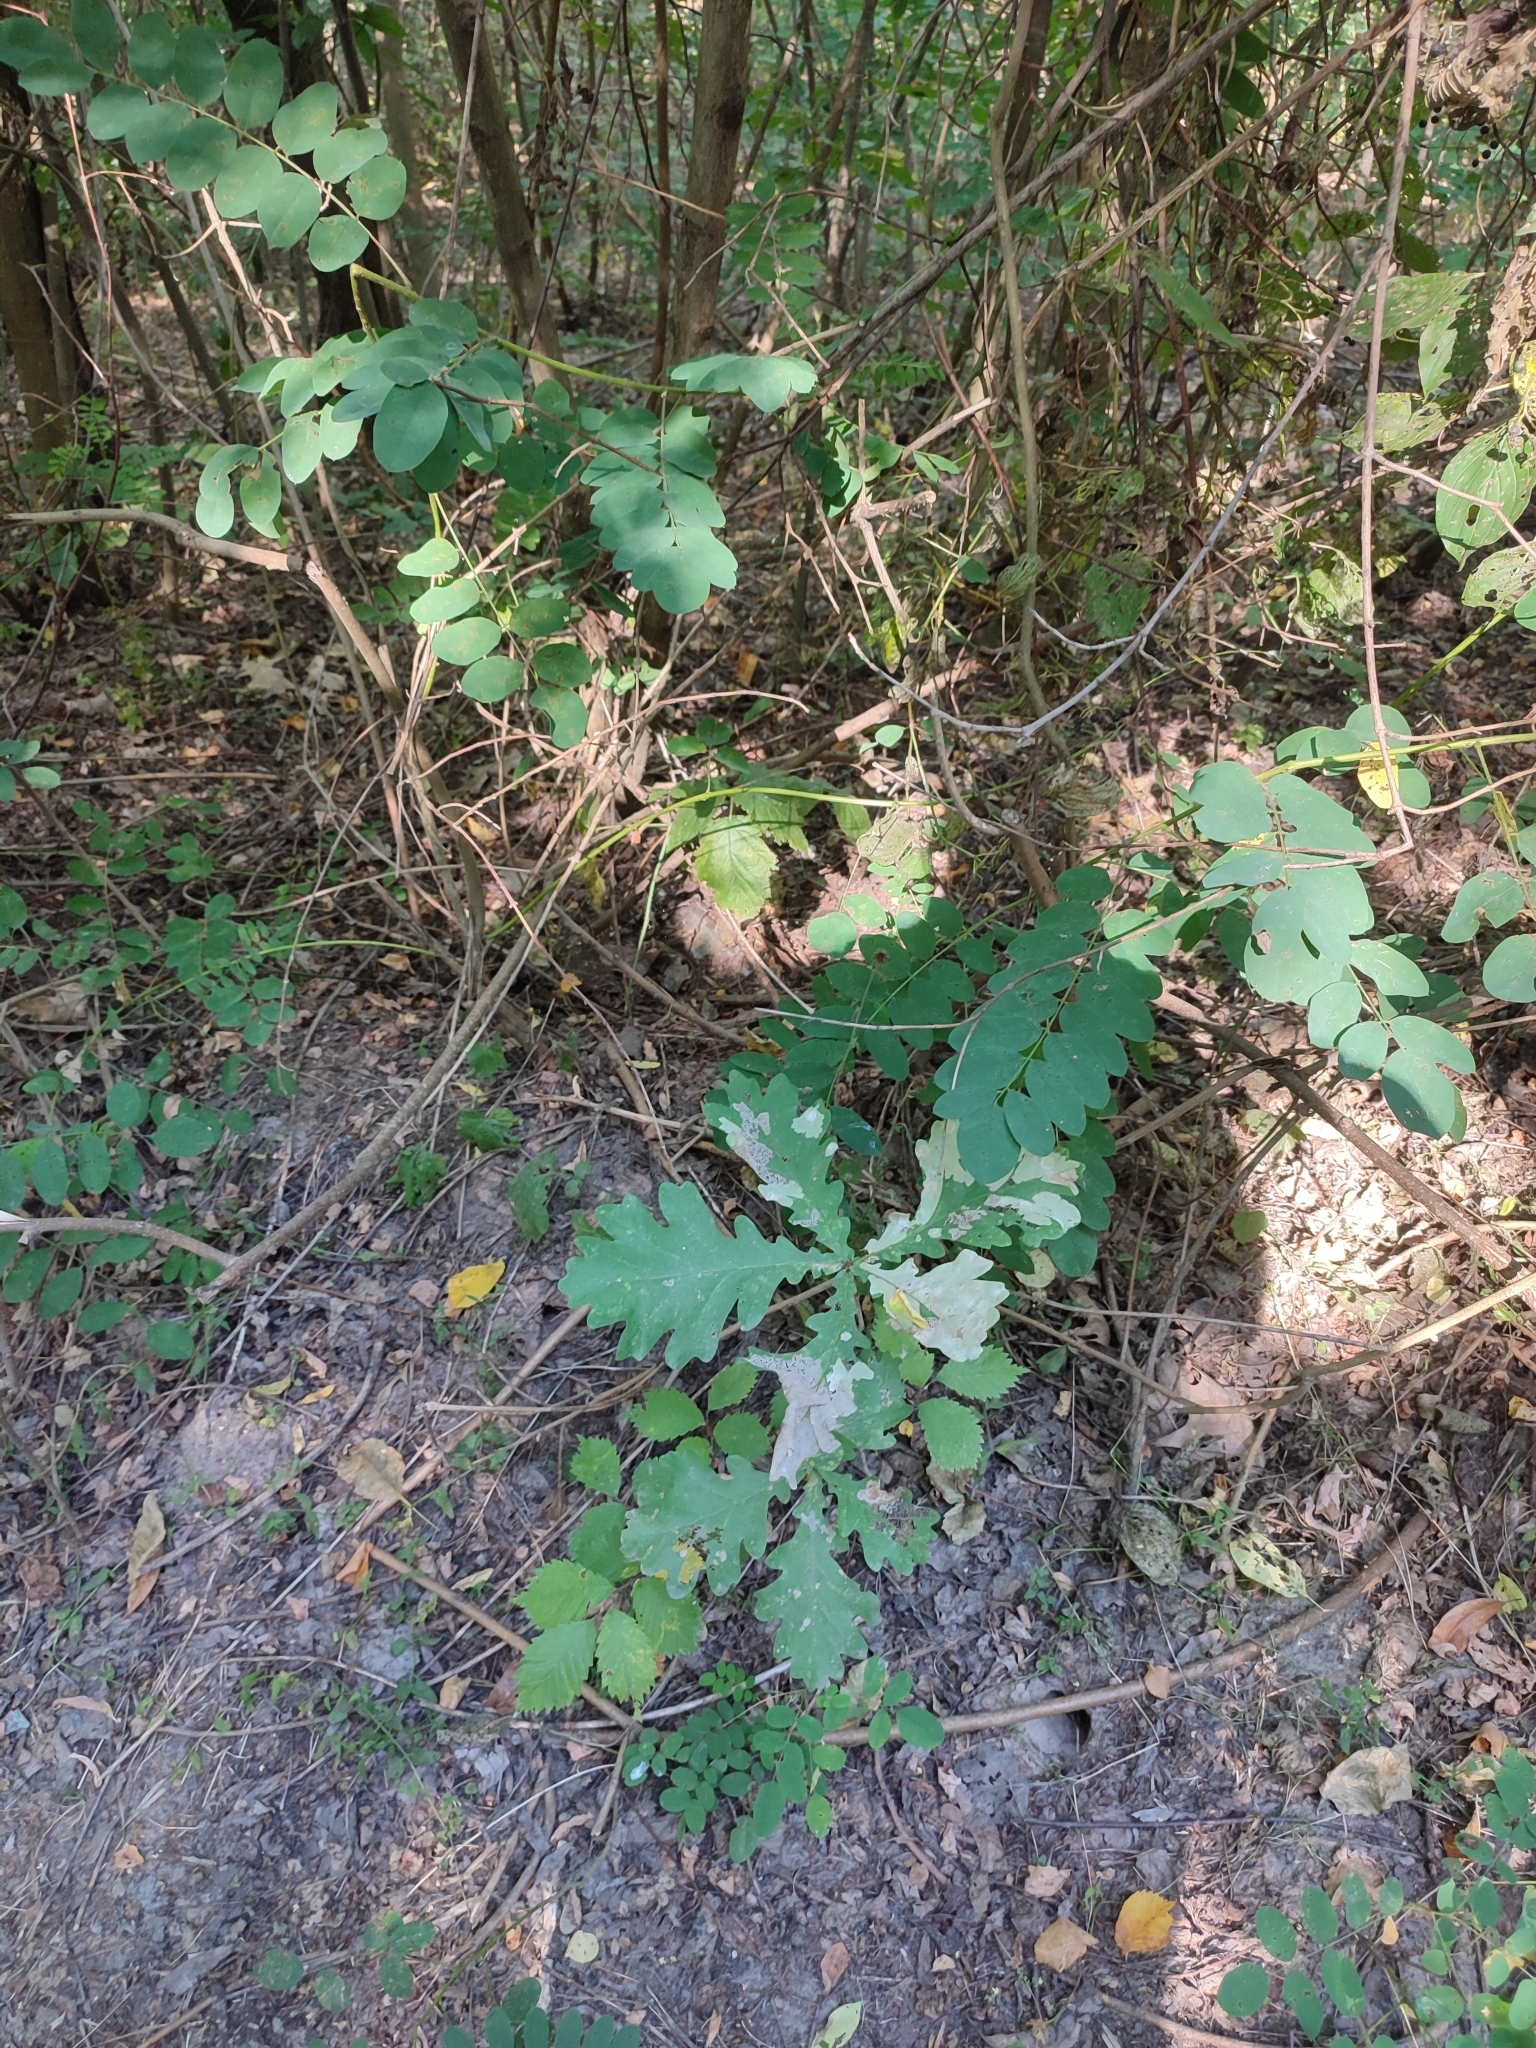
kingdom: Plantae
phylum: Tracheophyta
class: Magnoliopsida
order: Fagales
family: Fagaceae
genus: Quercus
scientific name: Quercus robur
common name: Pedunculate oak
